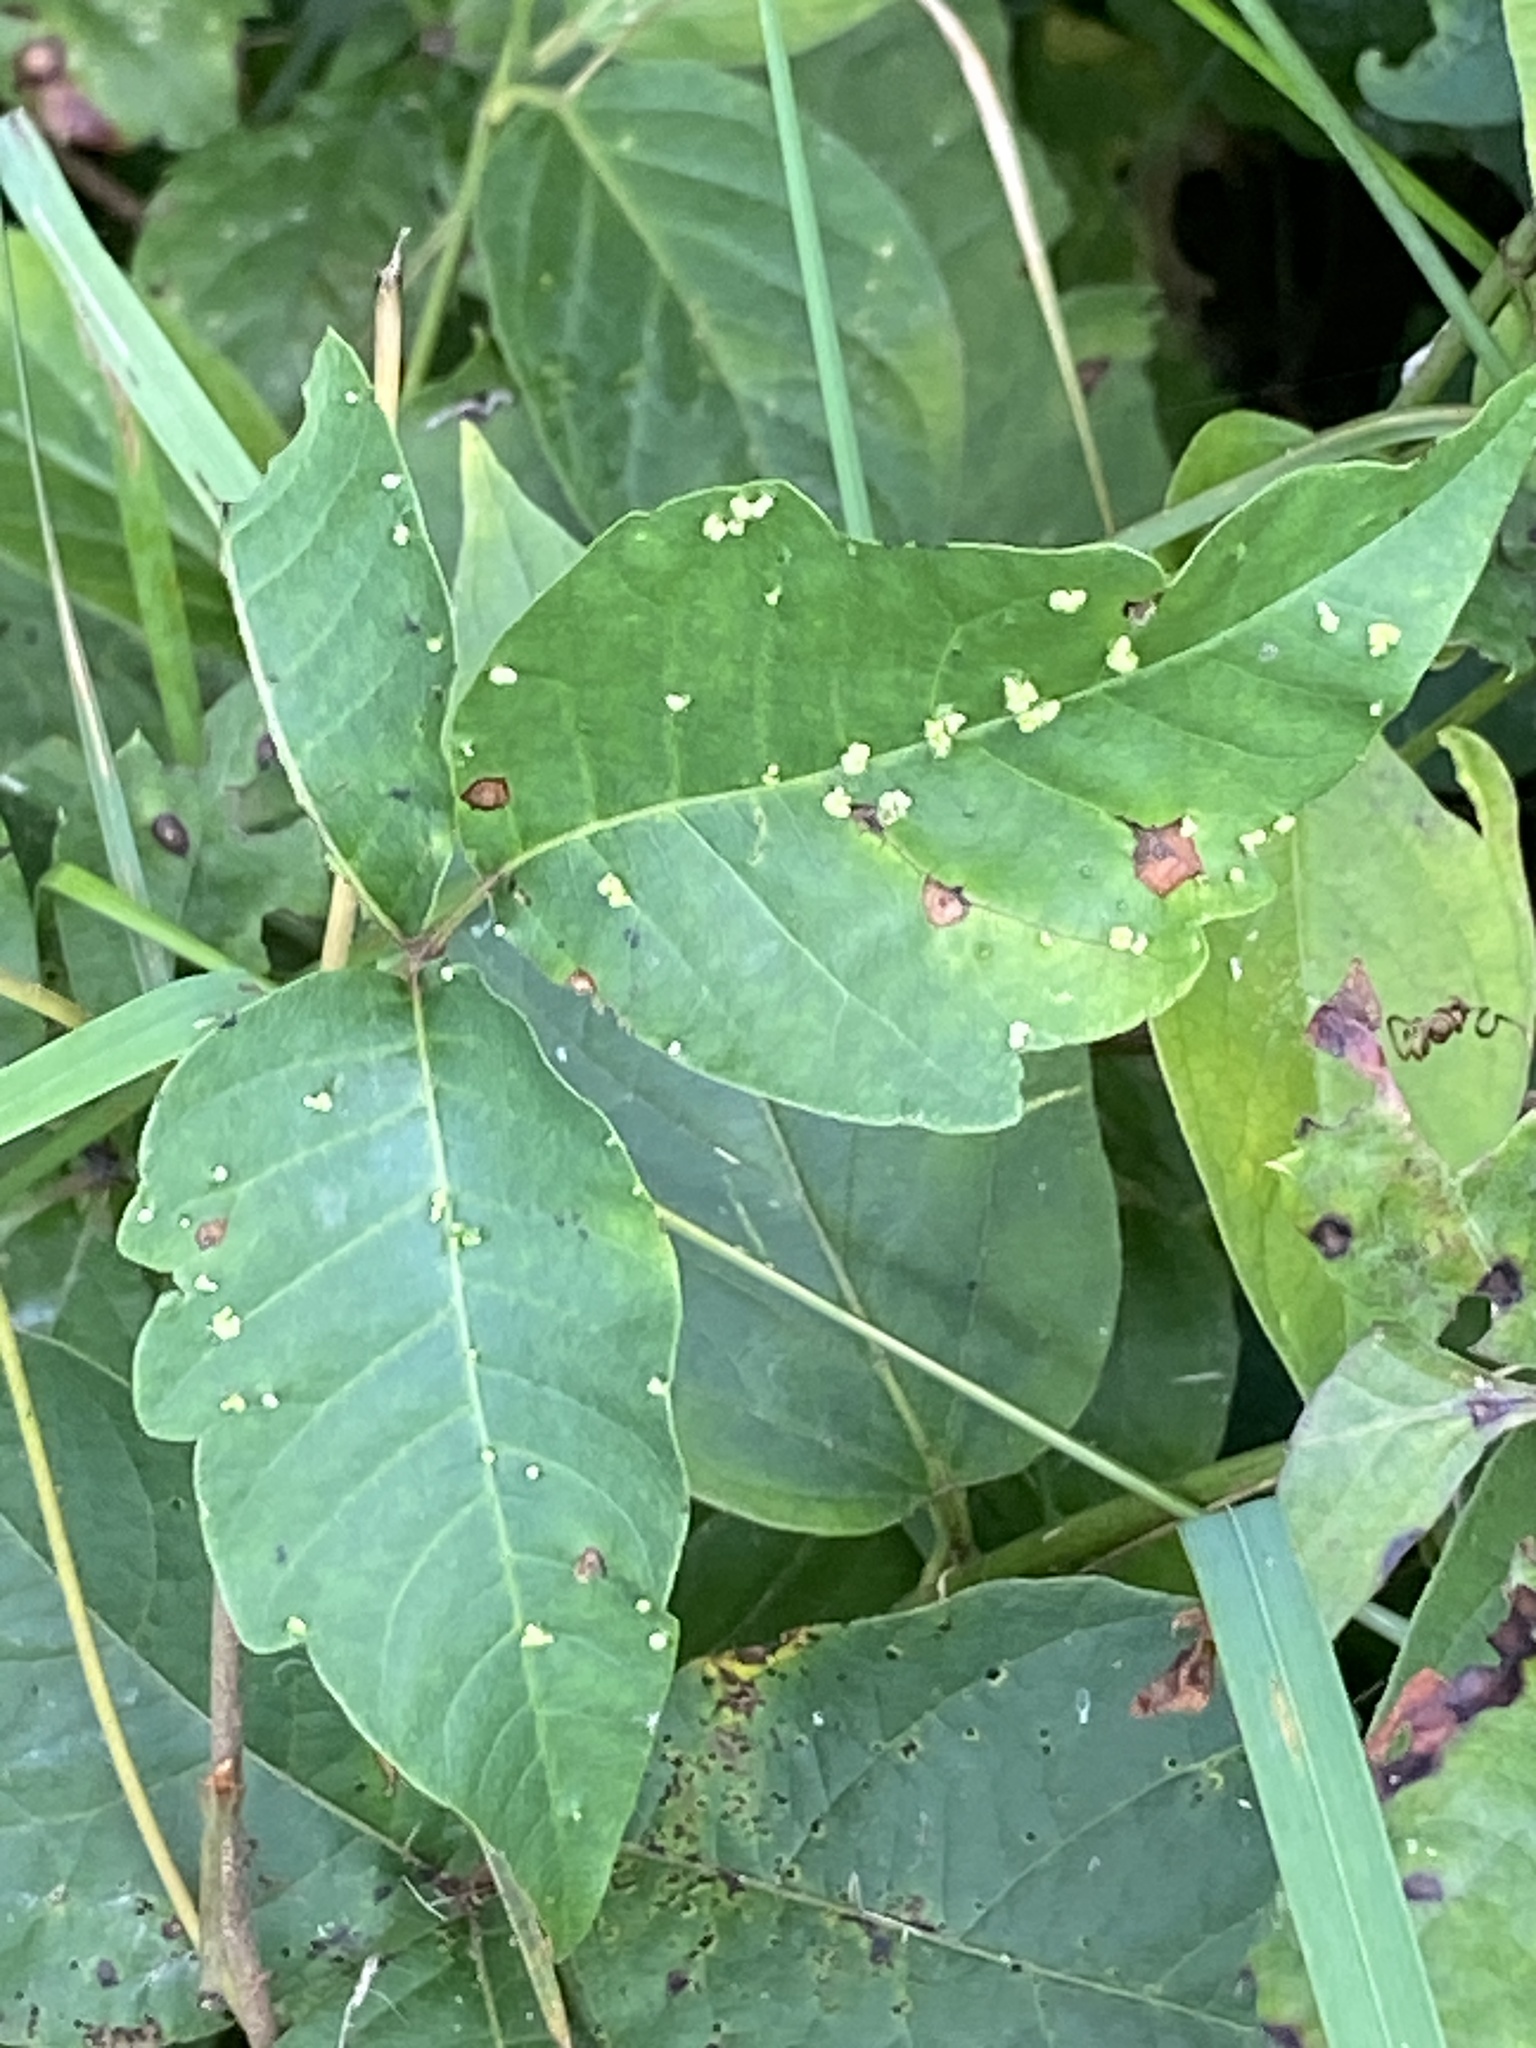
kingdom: Animalia
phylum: Arthropoda
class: Arachnida
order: Trombidiformes
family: Eriophyidae
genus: Aculops
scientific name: Aculops
